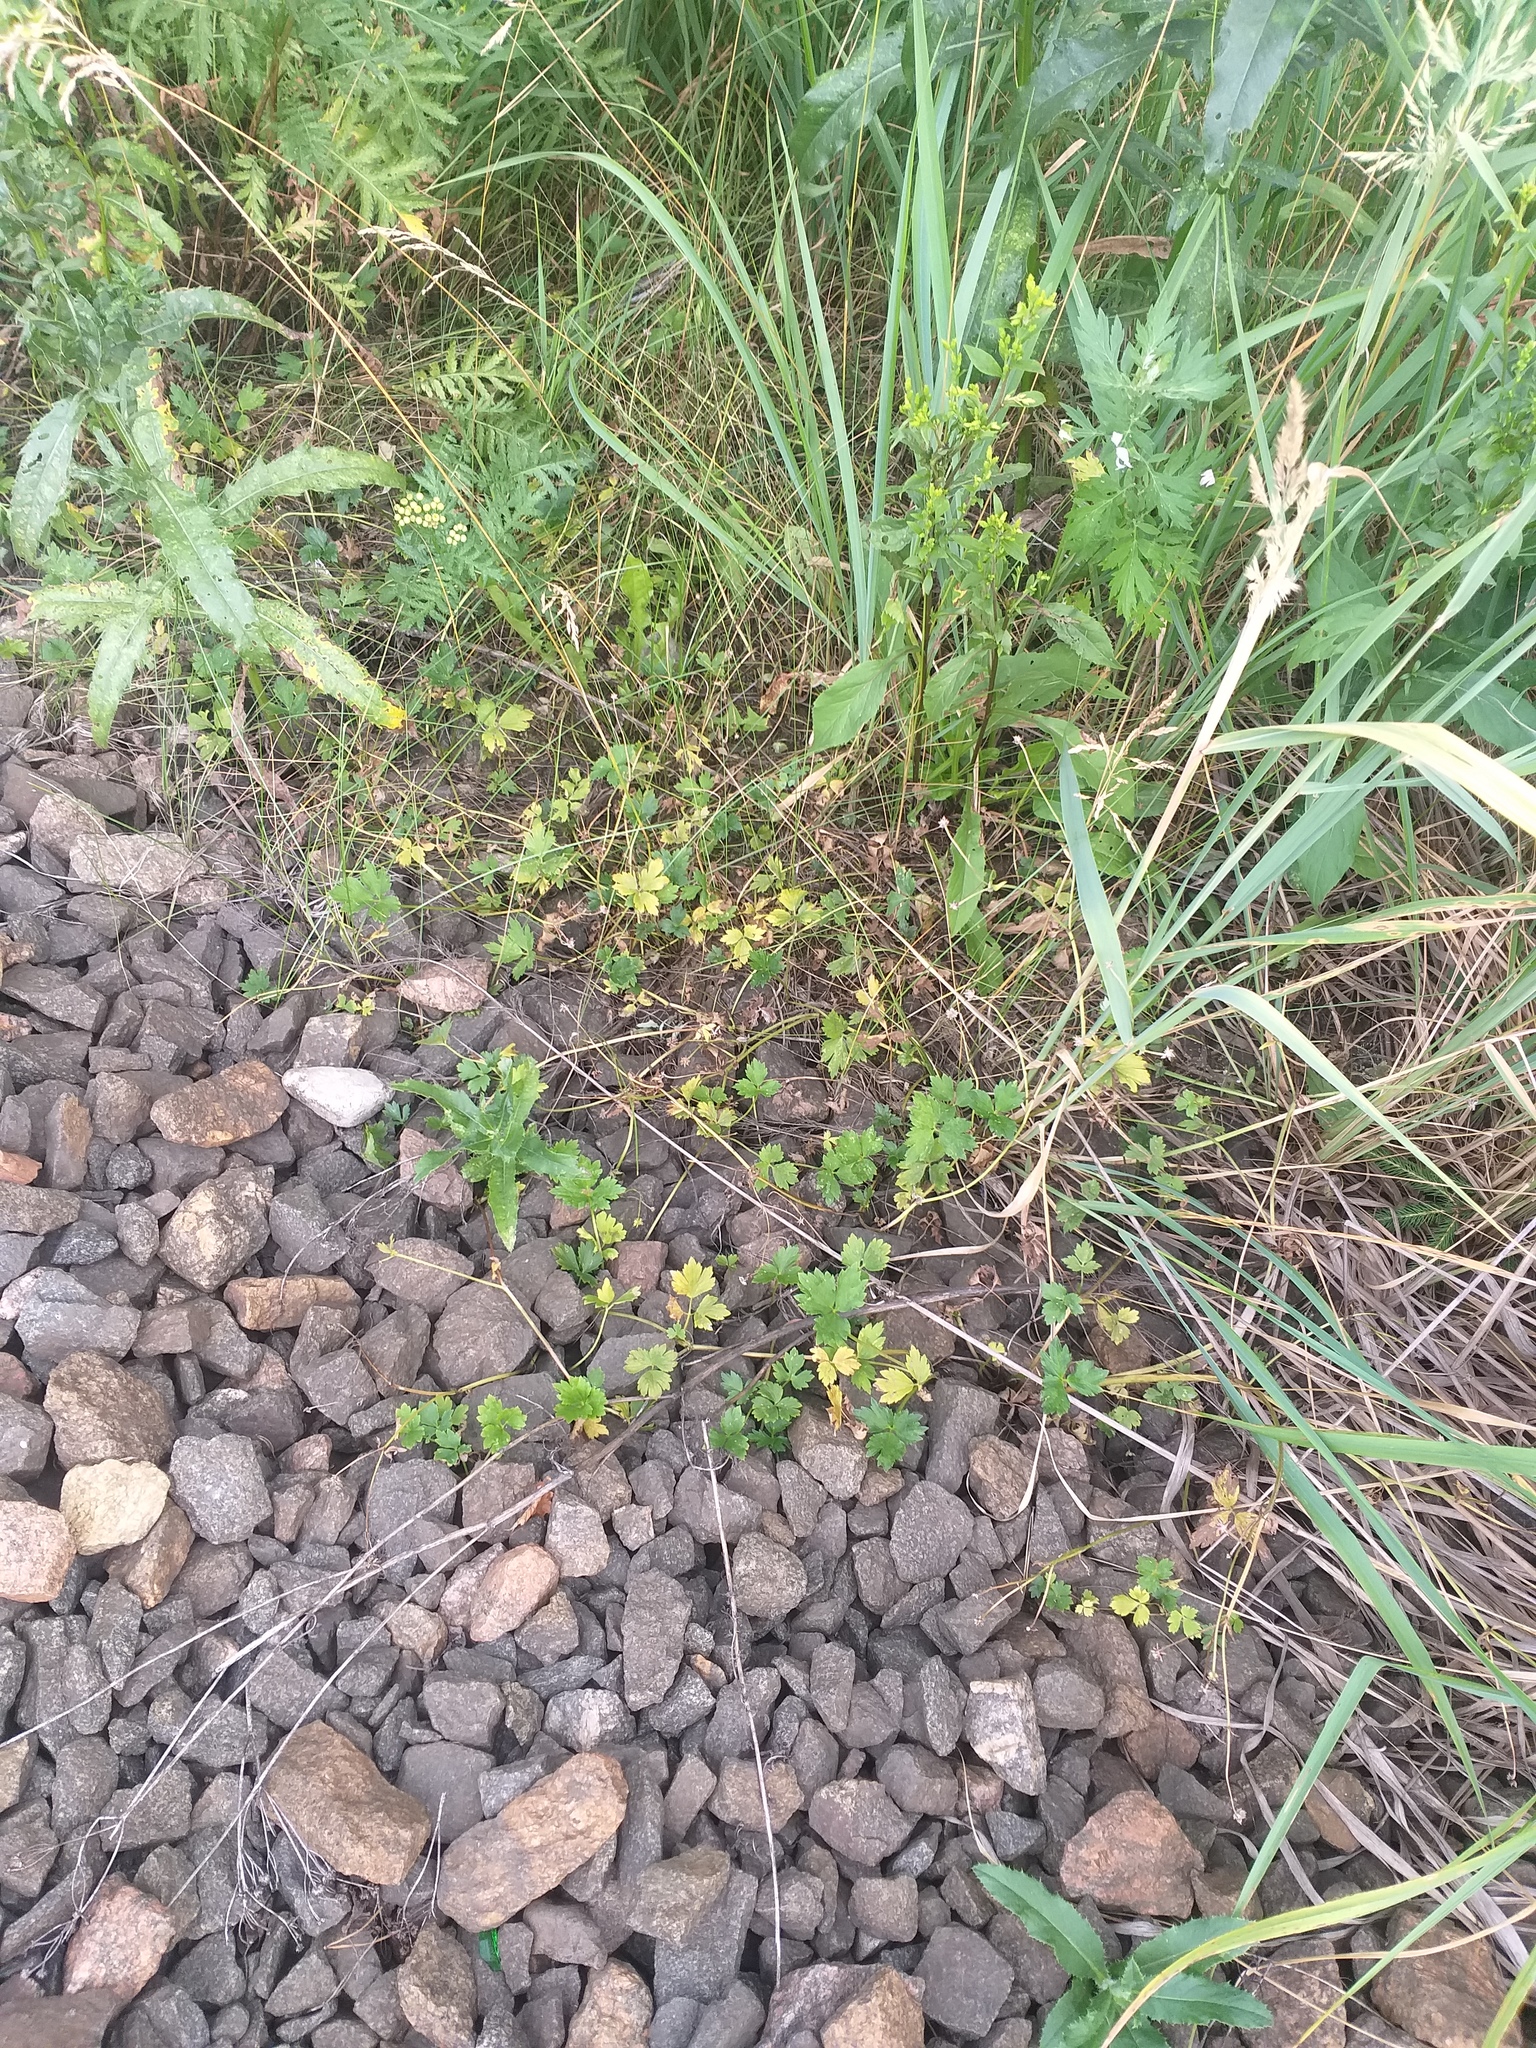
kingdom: Plantae
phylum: Tracheophyta
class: Magnoliopsida
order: Ranunculales
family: Ranunculaceae
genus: Ranunculus
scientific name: Ranunculus repens
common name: Creeping buttercup
